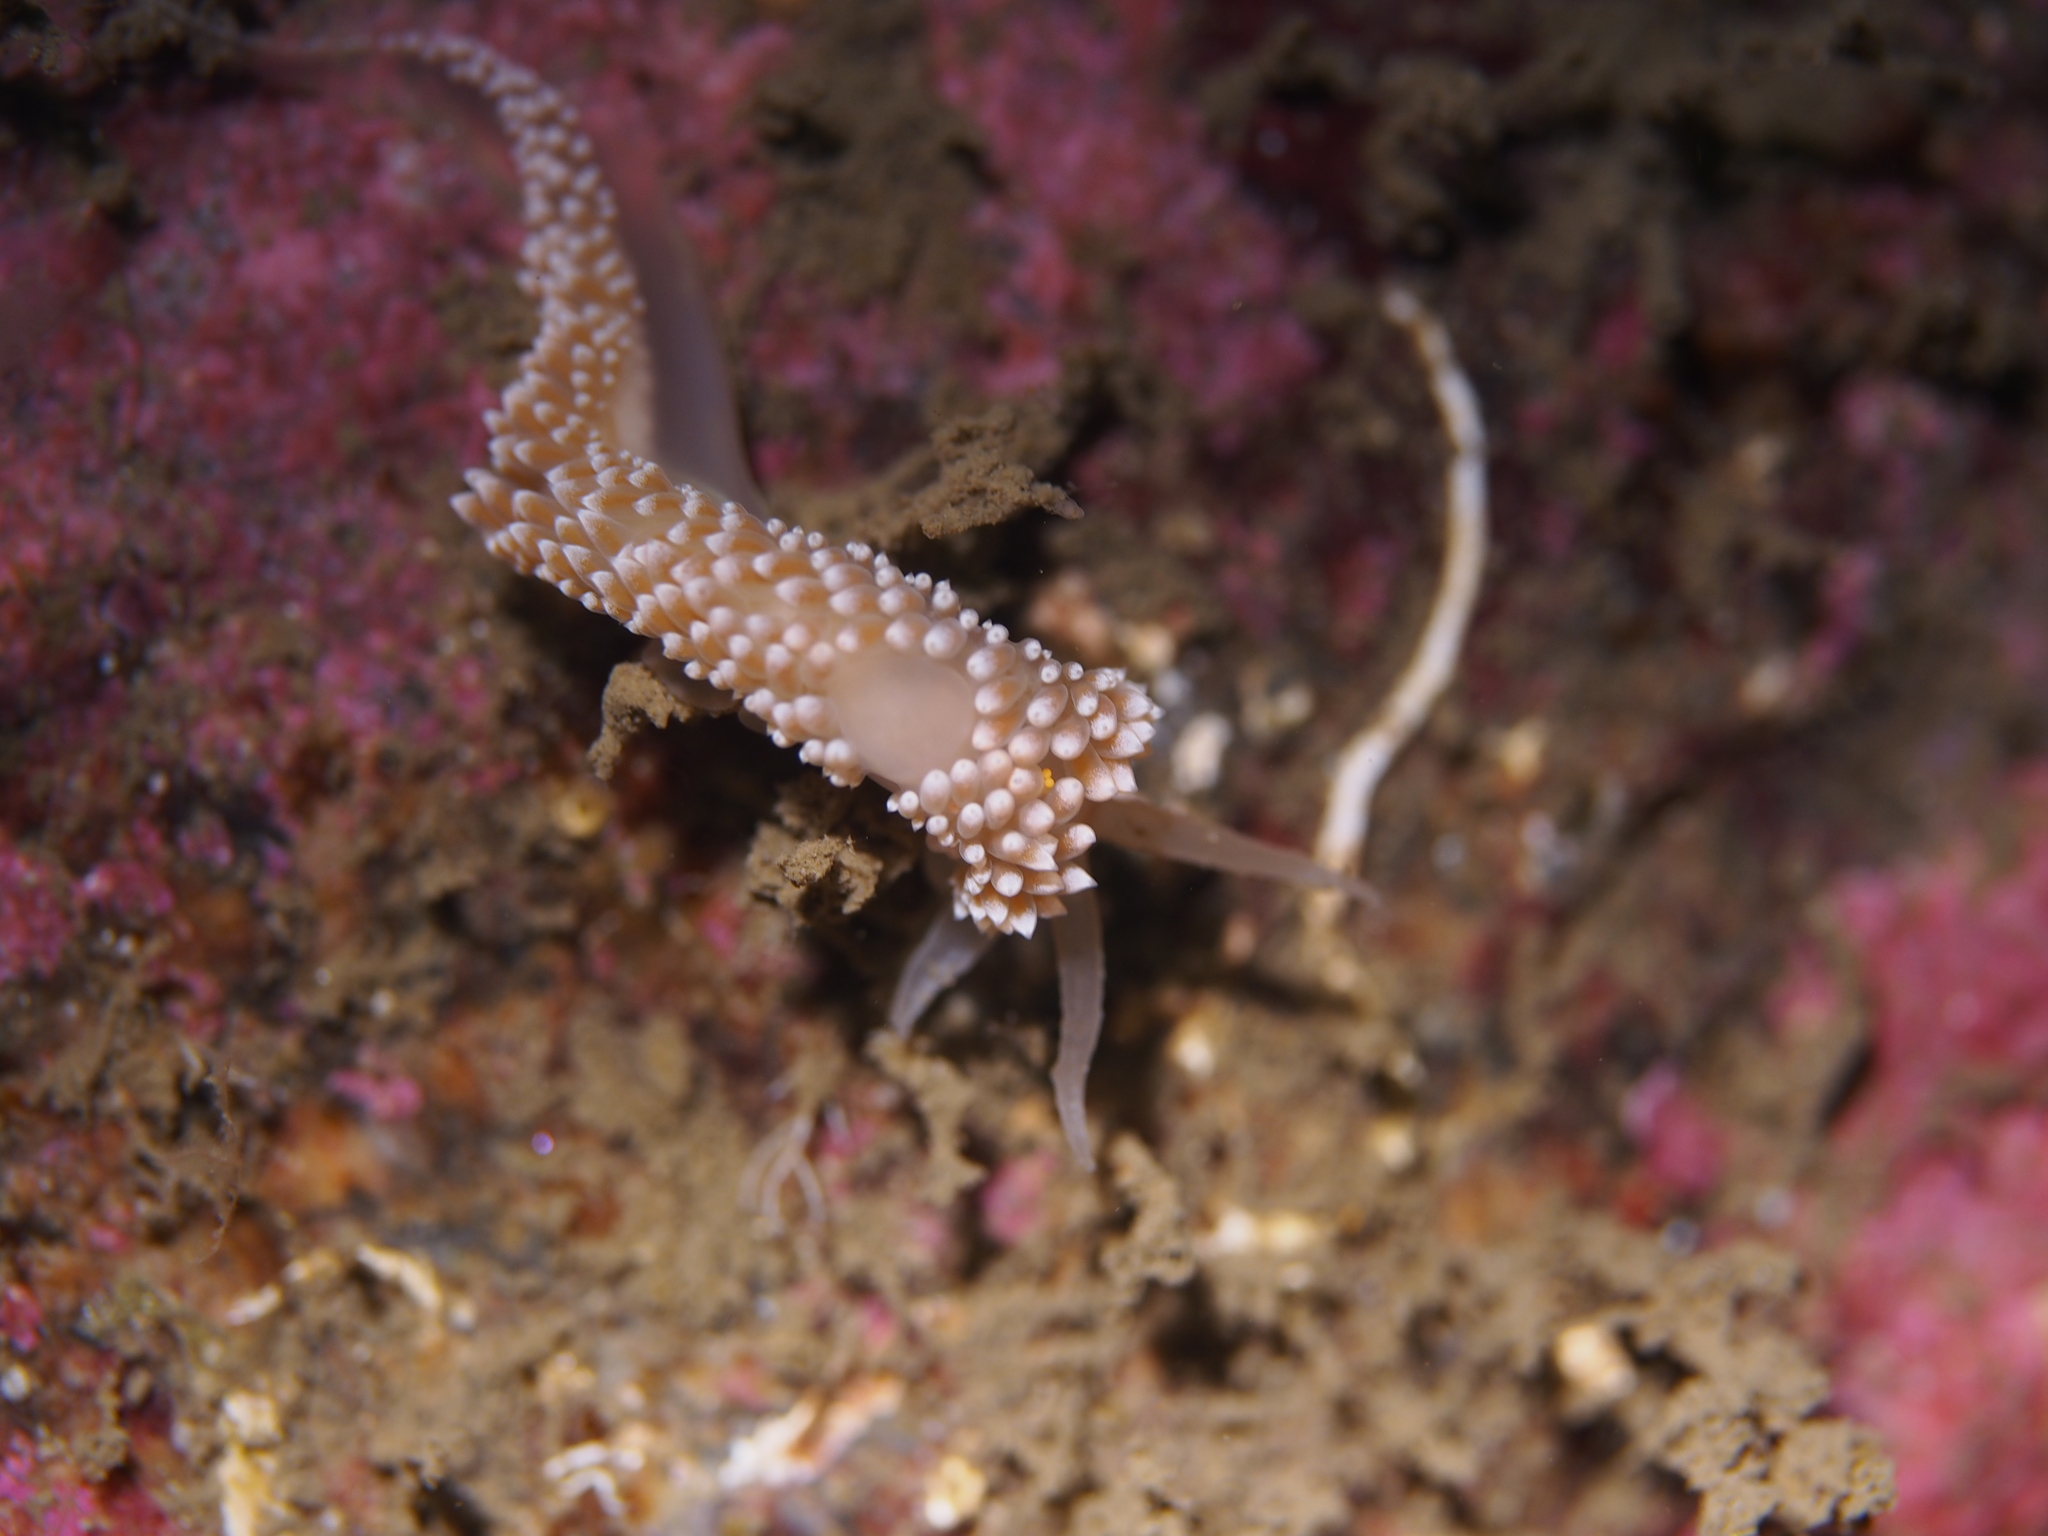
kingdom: Animalia
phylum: Mollusca
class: Gastropoda
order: Nudibranchia
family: Coryphellidae
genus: Coryphella
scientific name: Coryphella verrucosa
